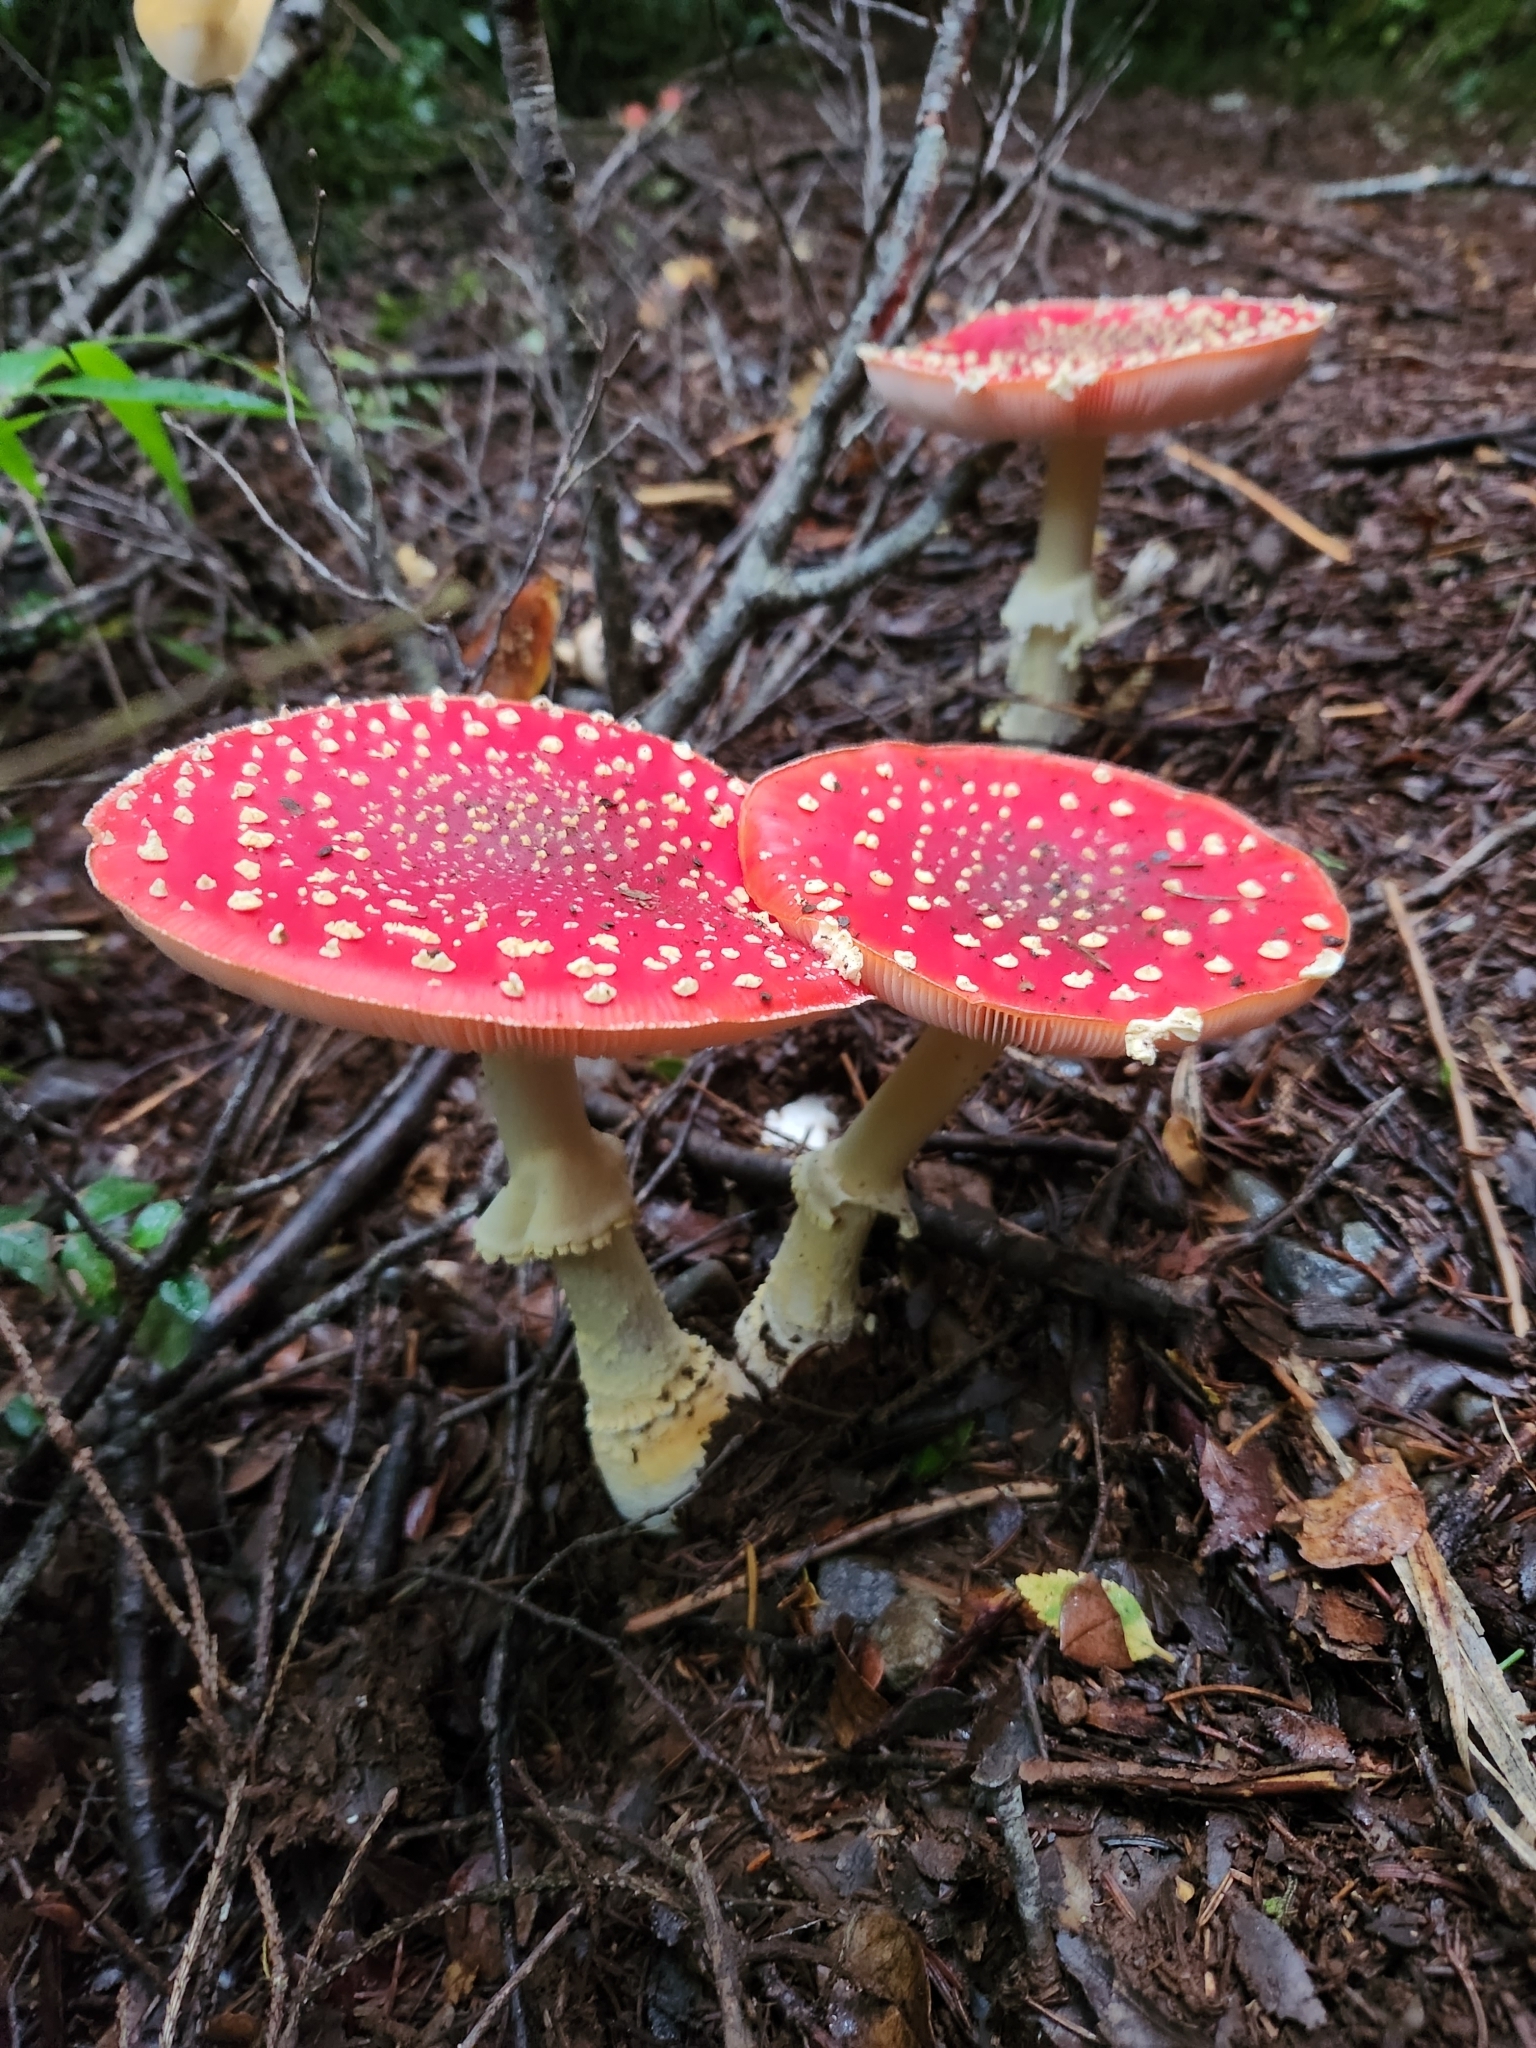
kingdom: Fungi
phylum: Basidiomycota
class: Agaricomycetes
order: Agaricales
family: Amanitaceae
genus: Amanita
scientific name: Amanita muscaria
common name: Fly agaric
